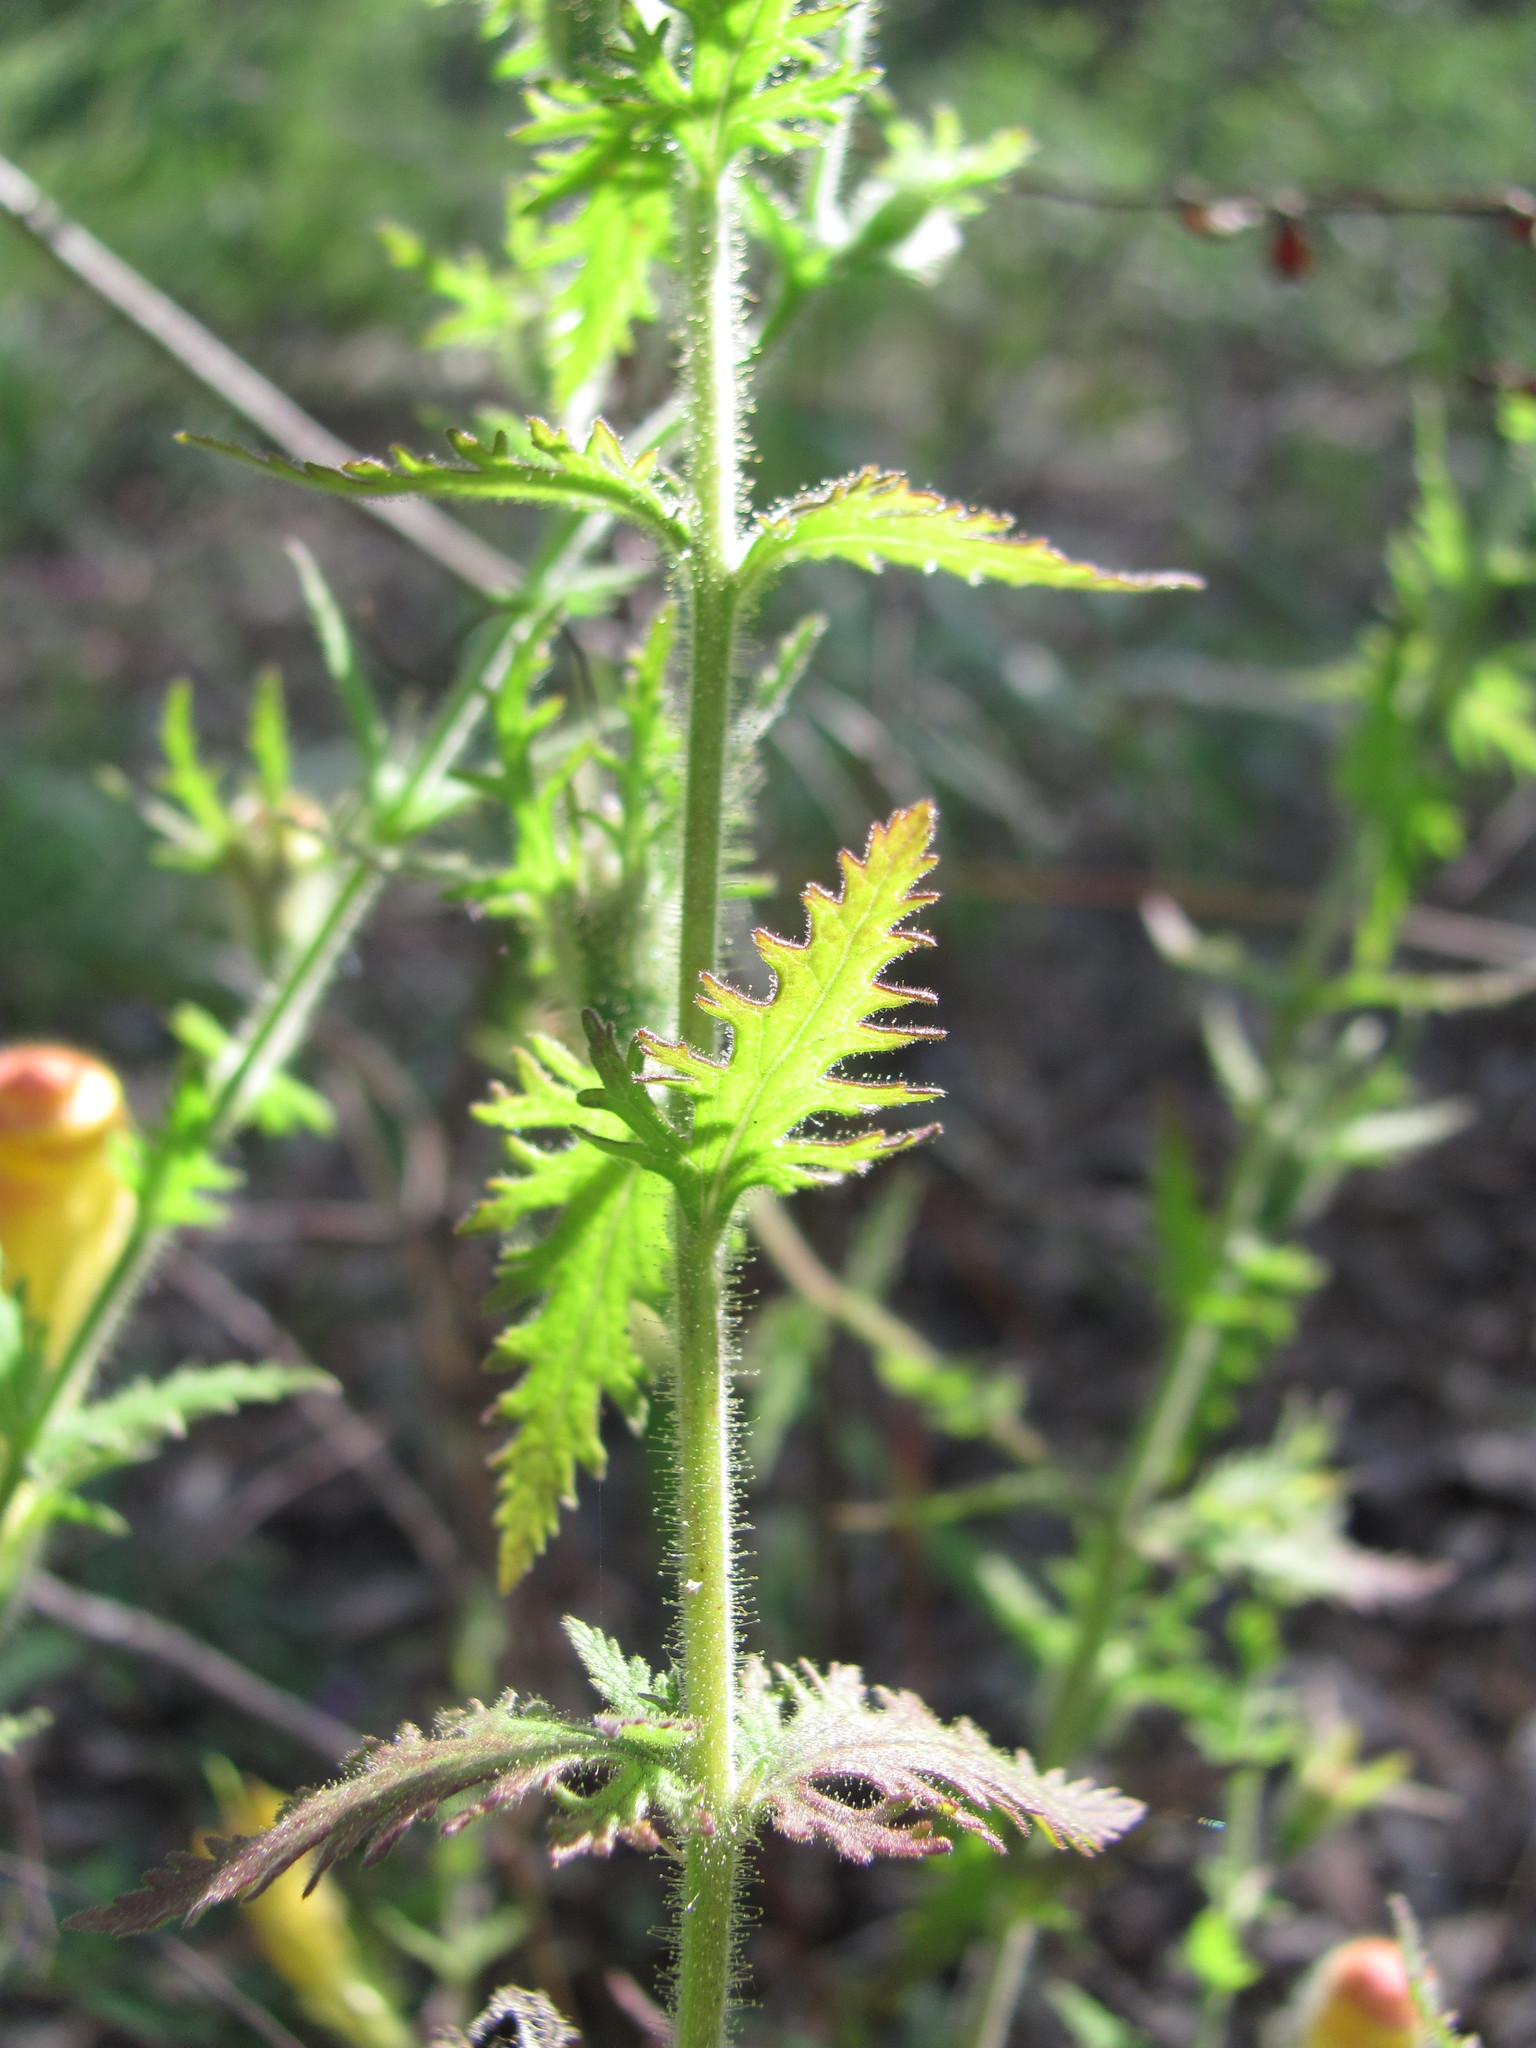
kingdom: Plantae
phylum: Tracheophyta
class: Magnoliopsida
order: Lamiales
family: Orobanchaceae
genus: Aureolaria
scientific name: Aureolaria pectinata
